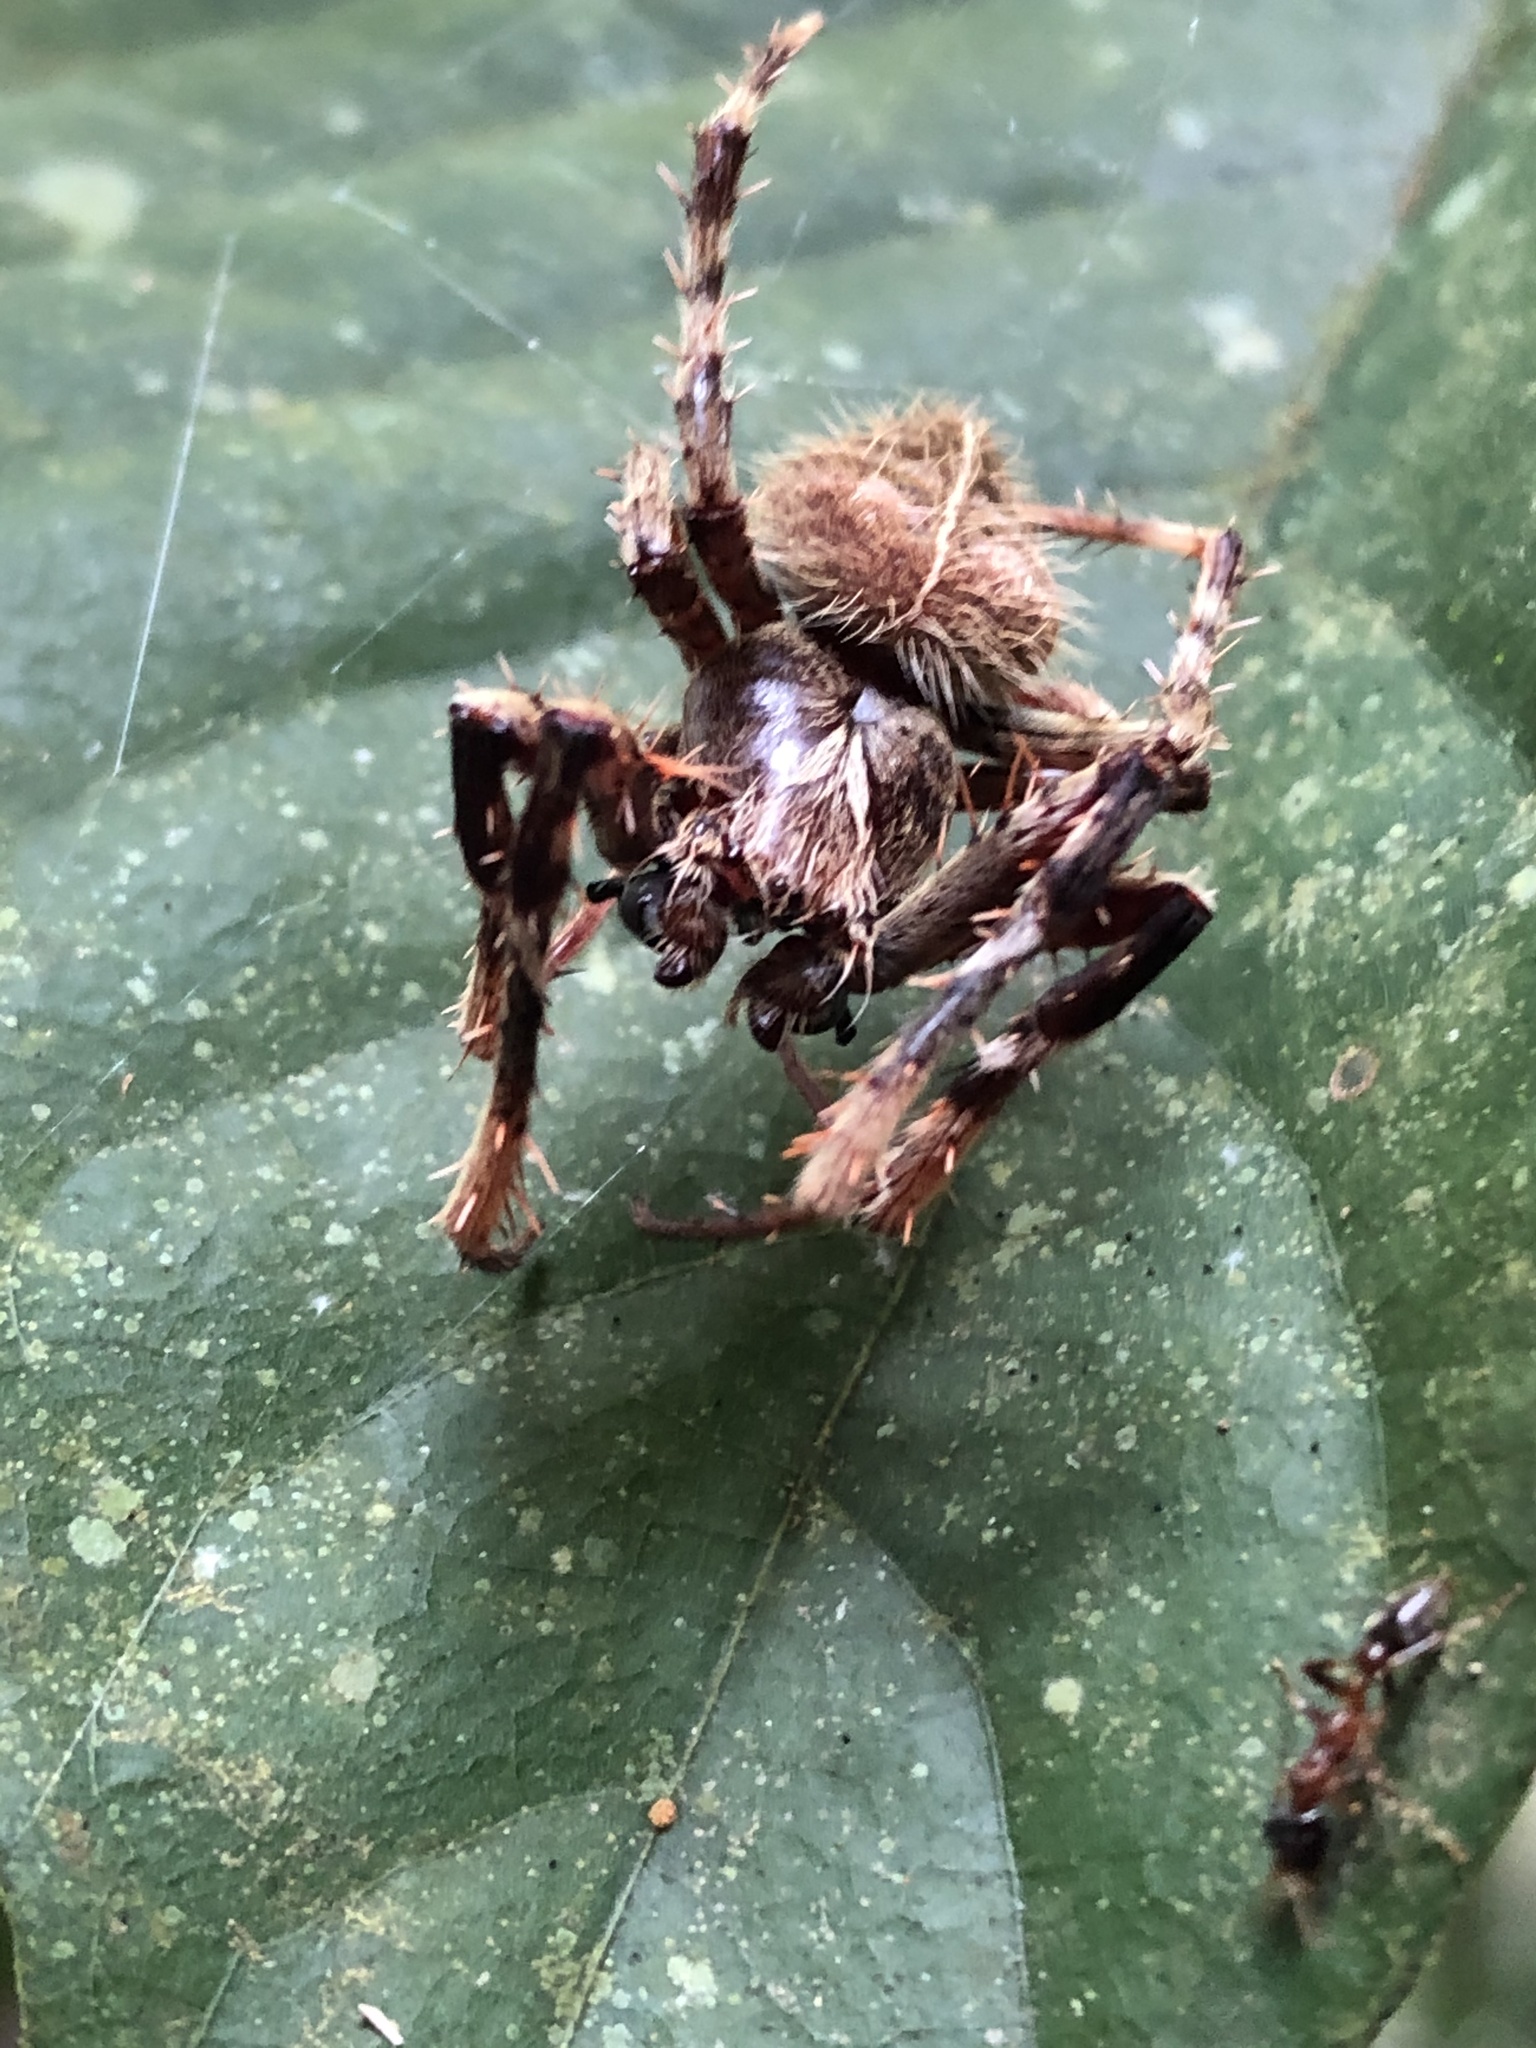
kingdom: Animalia
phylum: Arthropoda
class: Arachnida
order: Araneae
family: Araneidae
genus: Eriophora
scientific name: Eriophora fuliginea
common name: Orb weavers
